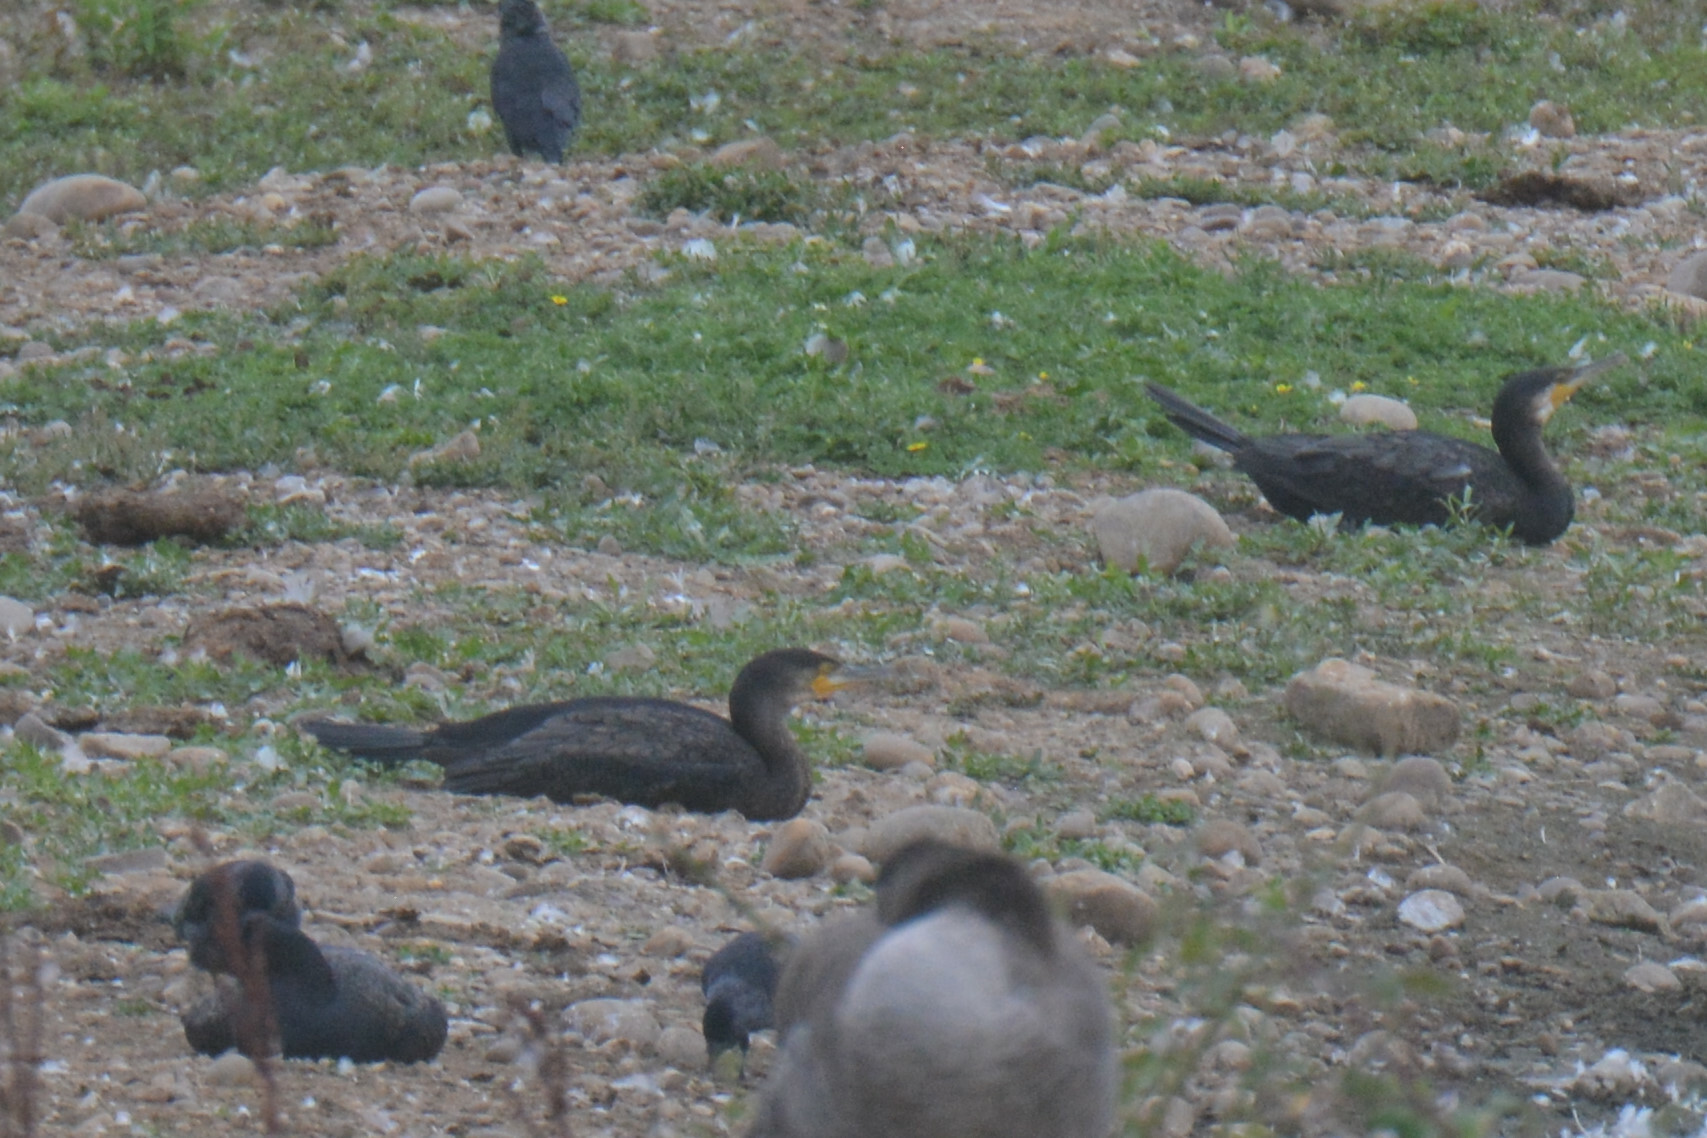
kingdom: Animalia
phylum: Chordata
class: Aves
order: Suliformes
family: Phalacrocoracidae
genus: Phalacrocorax
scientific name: Phalacrocorax carbo
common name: Great cormorant
